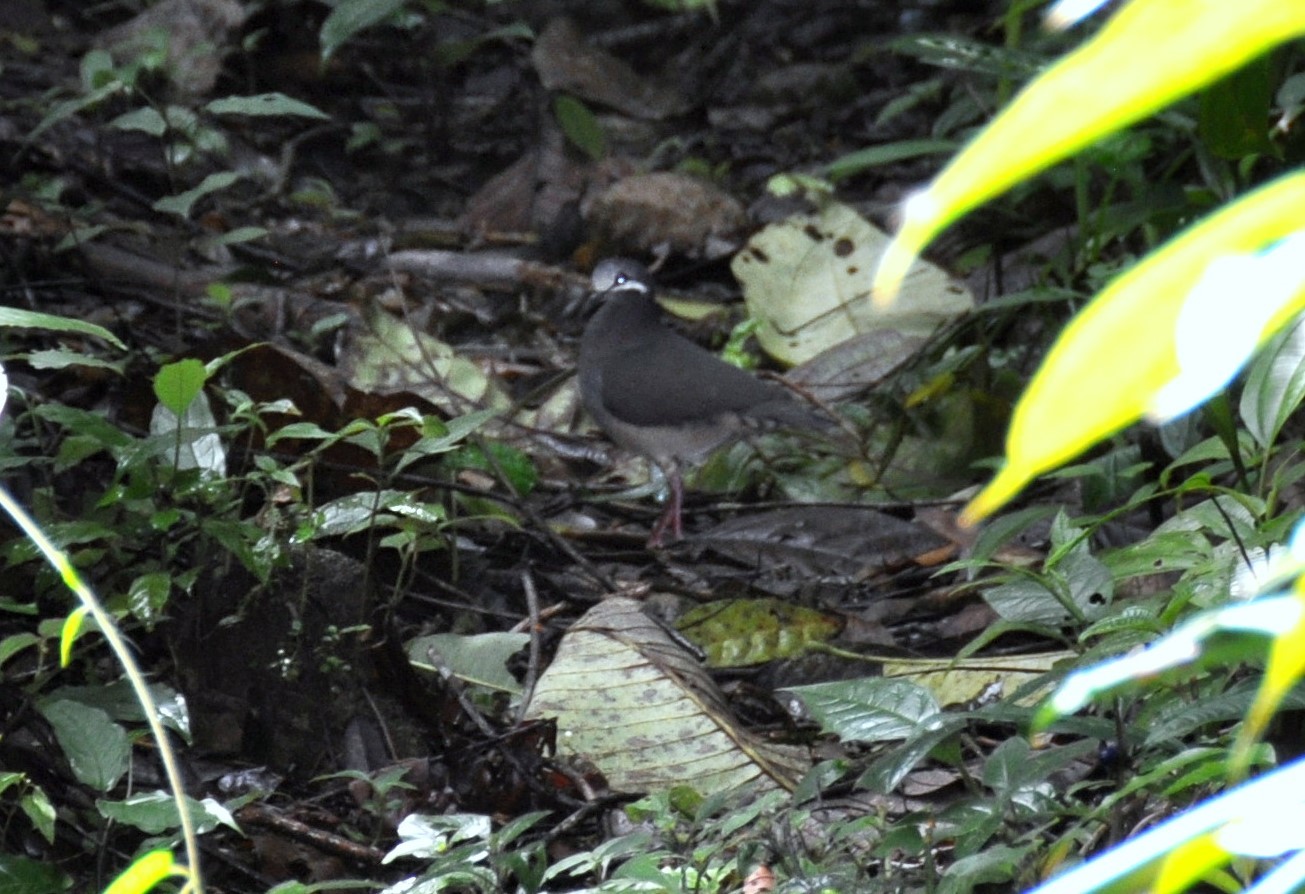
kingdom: Animalia
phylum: Chordata
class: Aves
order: Columbiformes
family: Columbidae
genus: Leptotrygon
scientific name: Leptotrygon veraguensis
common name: Olive-backed quail-dove
